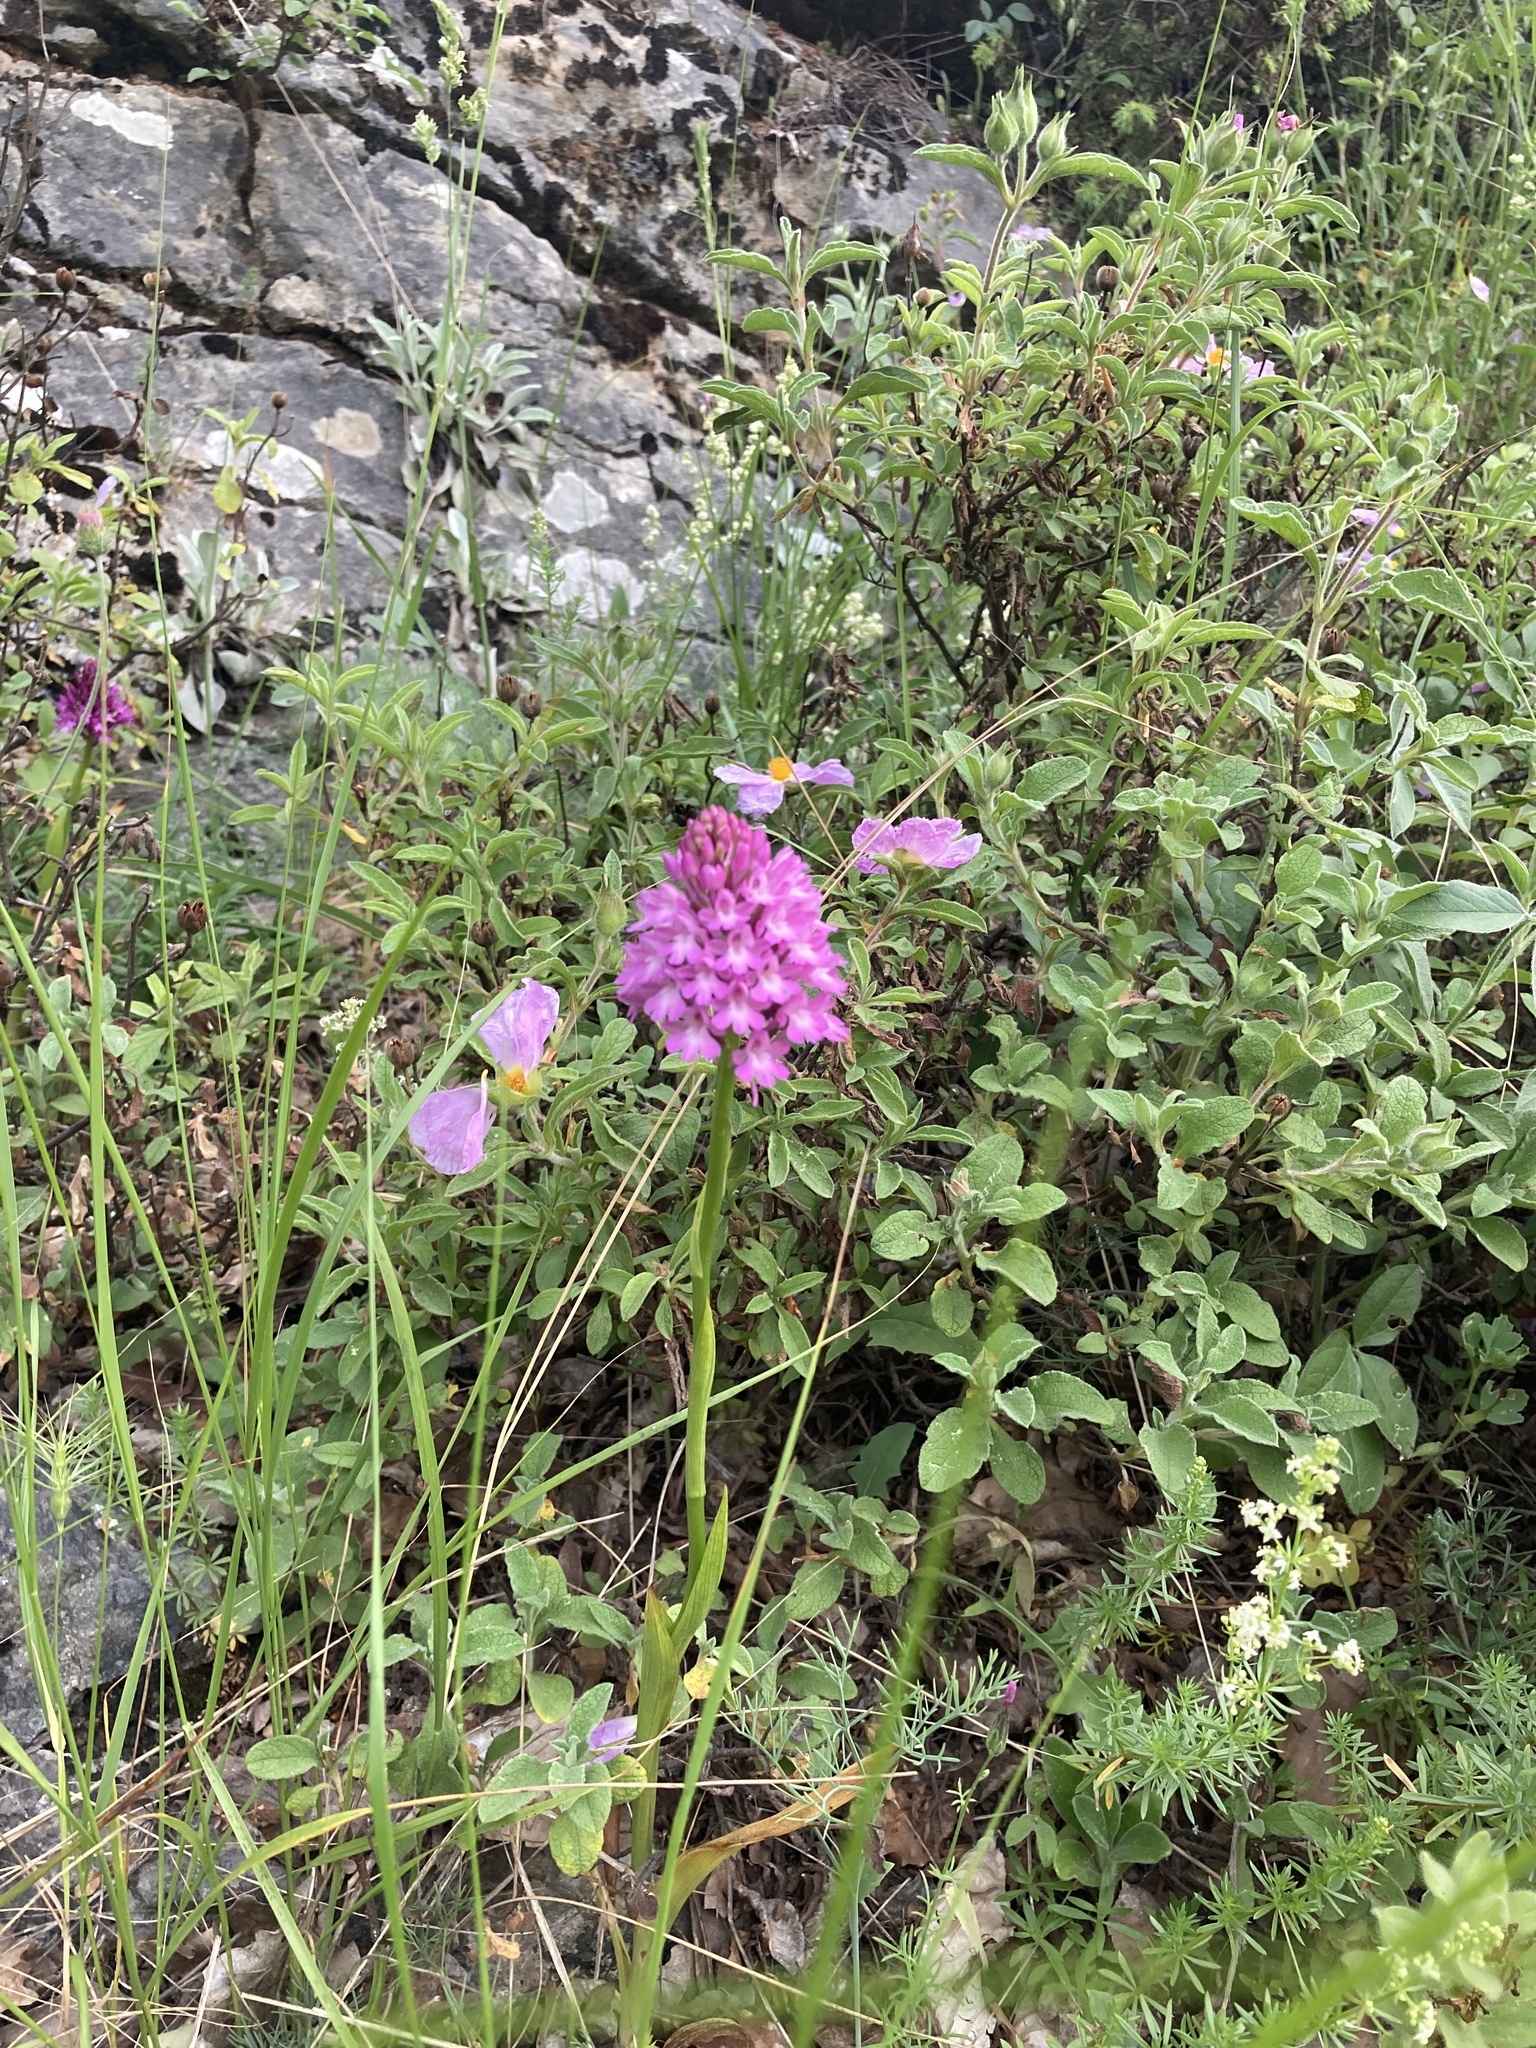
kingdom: Plantae
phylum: Tracheophyta
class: Liliopsida
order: Asparagales
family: Orchidaceae
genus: Anacamptis
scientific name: Anacamptis pyramidalis
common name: Pyramidal orchid
